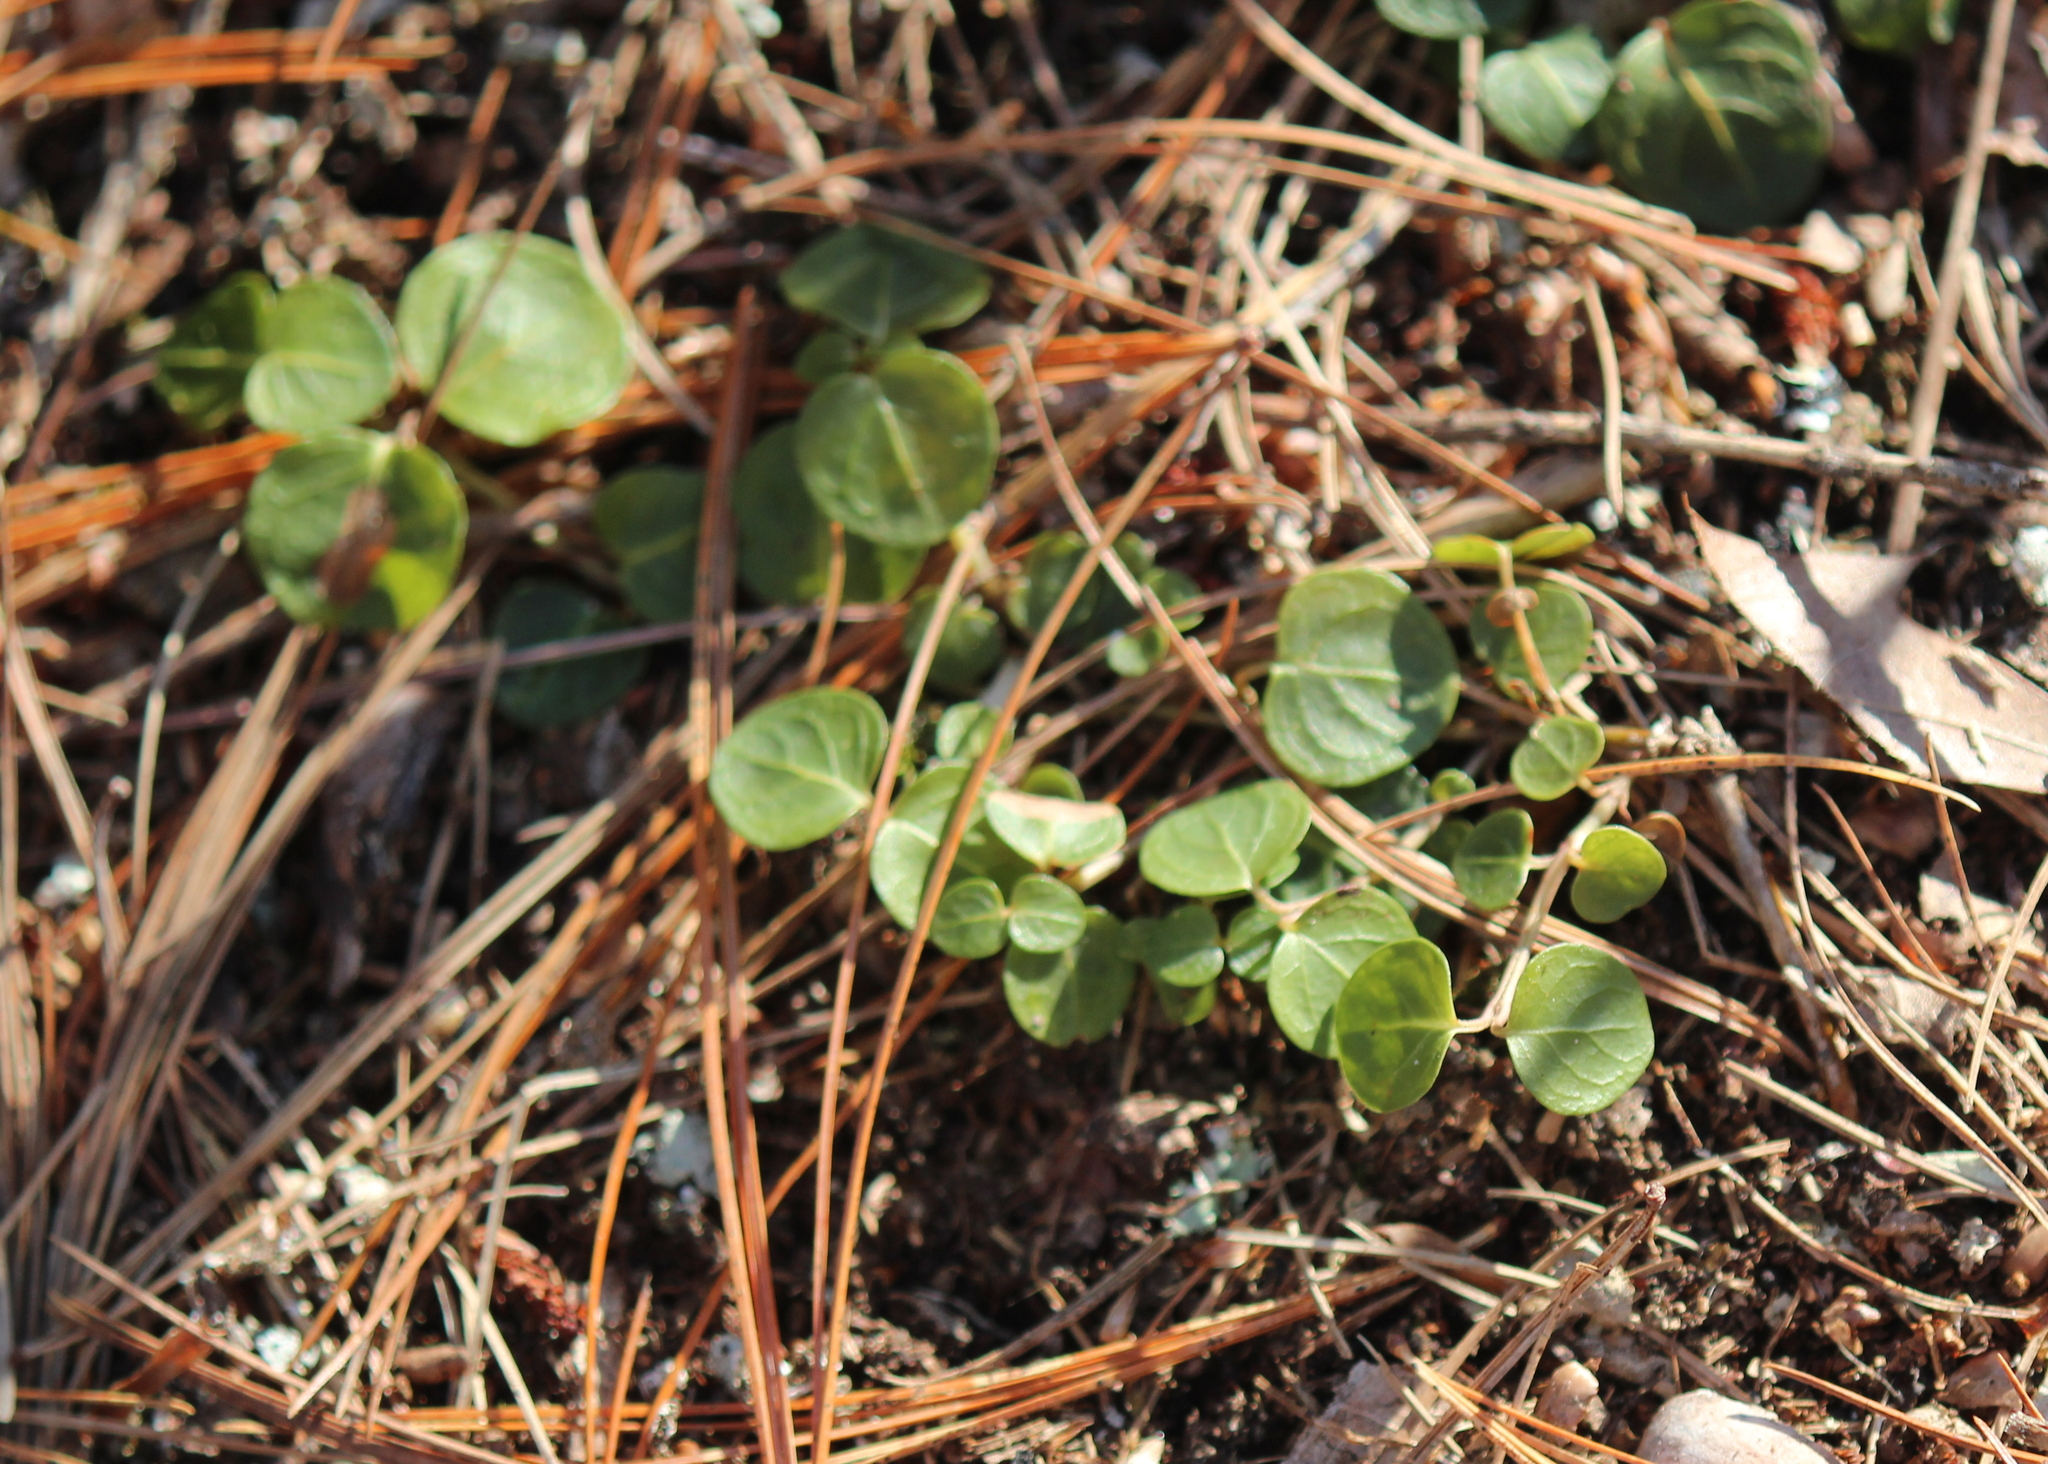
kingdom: Plantae
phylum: Tracheophyta
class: Magnoliopsida
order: Gentianales
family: Rubiaceae
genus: Mitchella
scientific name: Mitchella repens
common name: Partridge-berry
